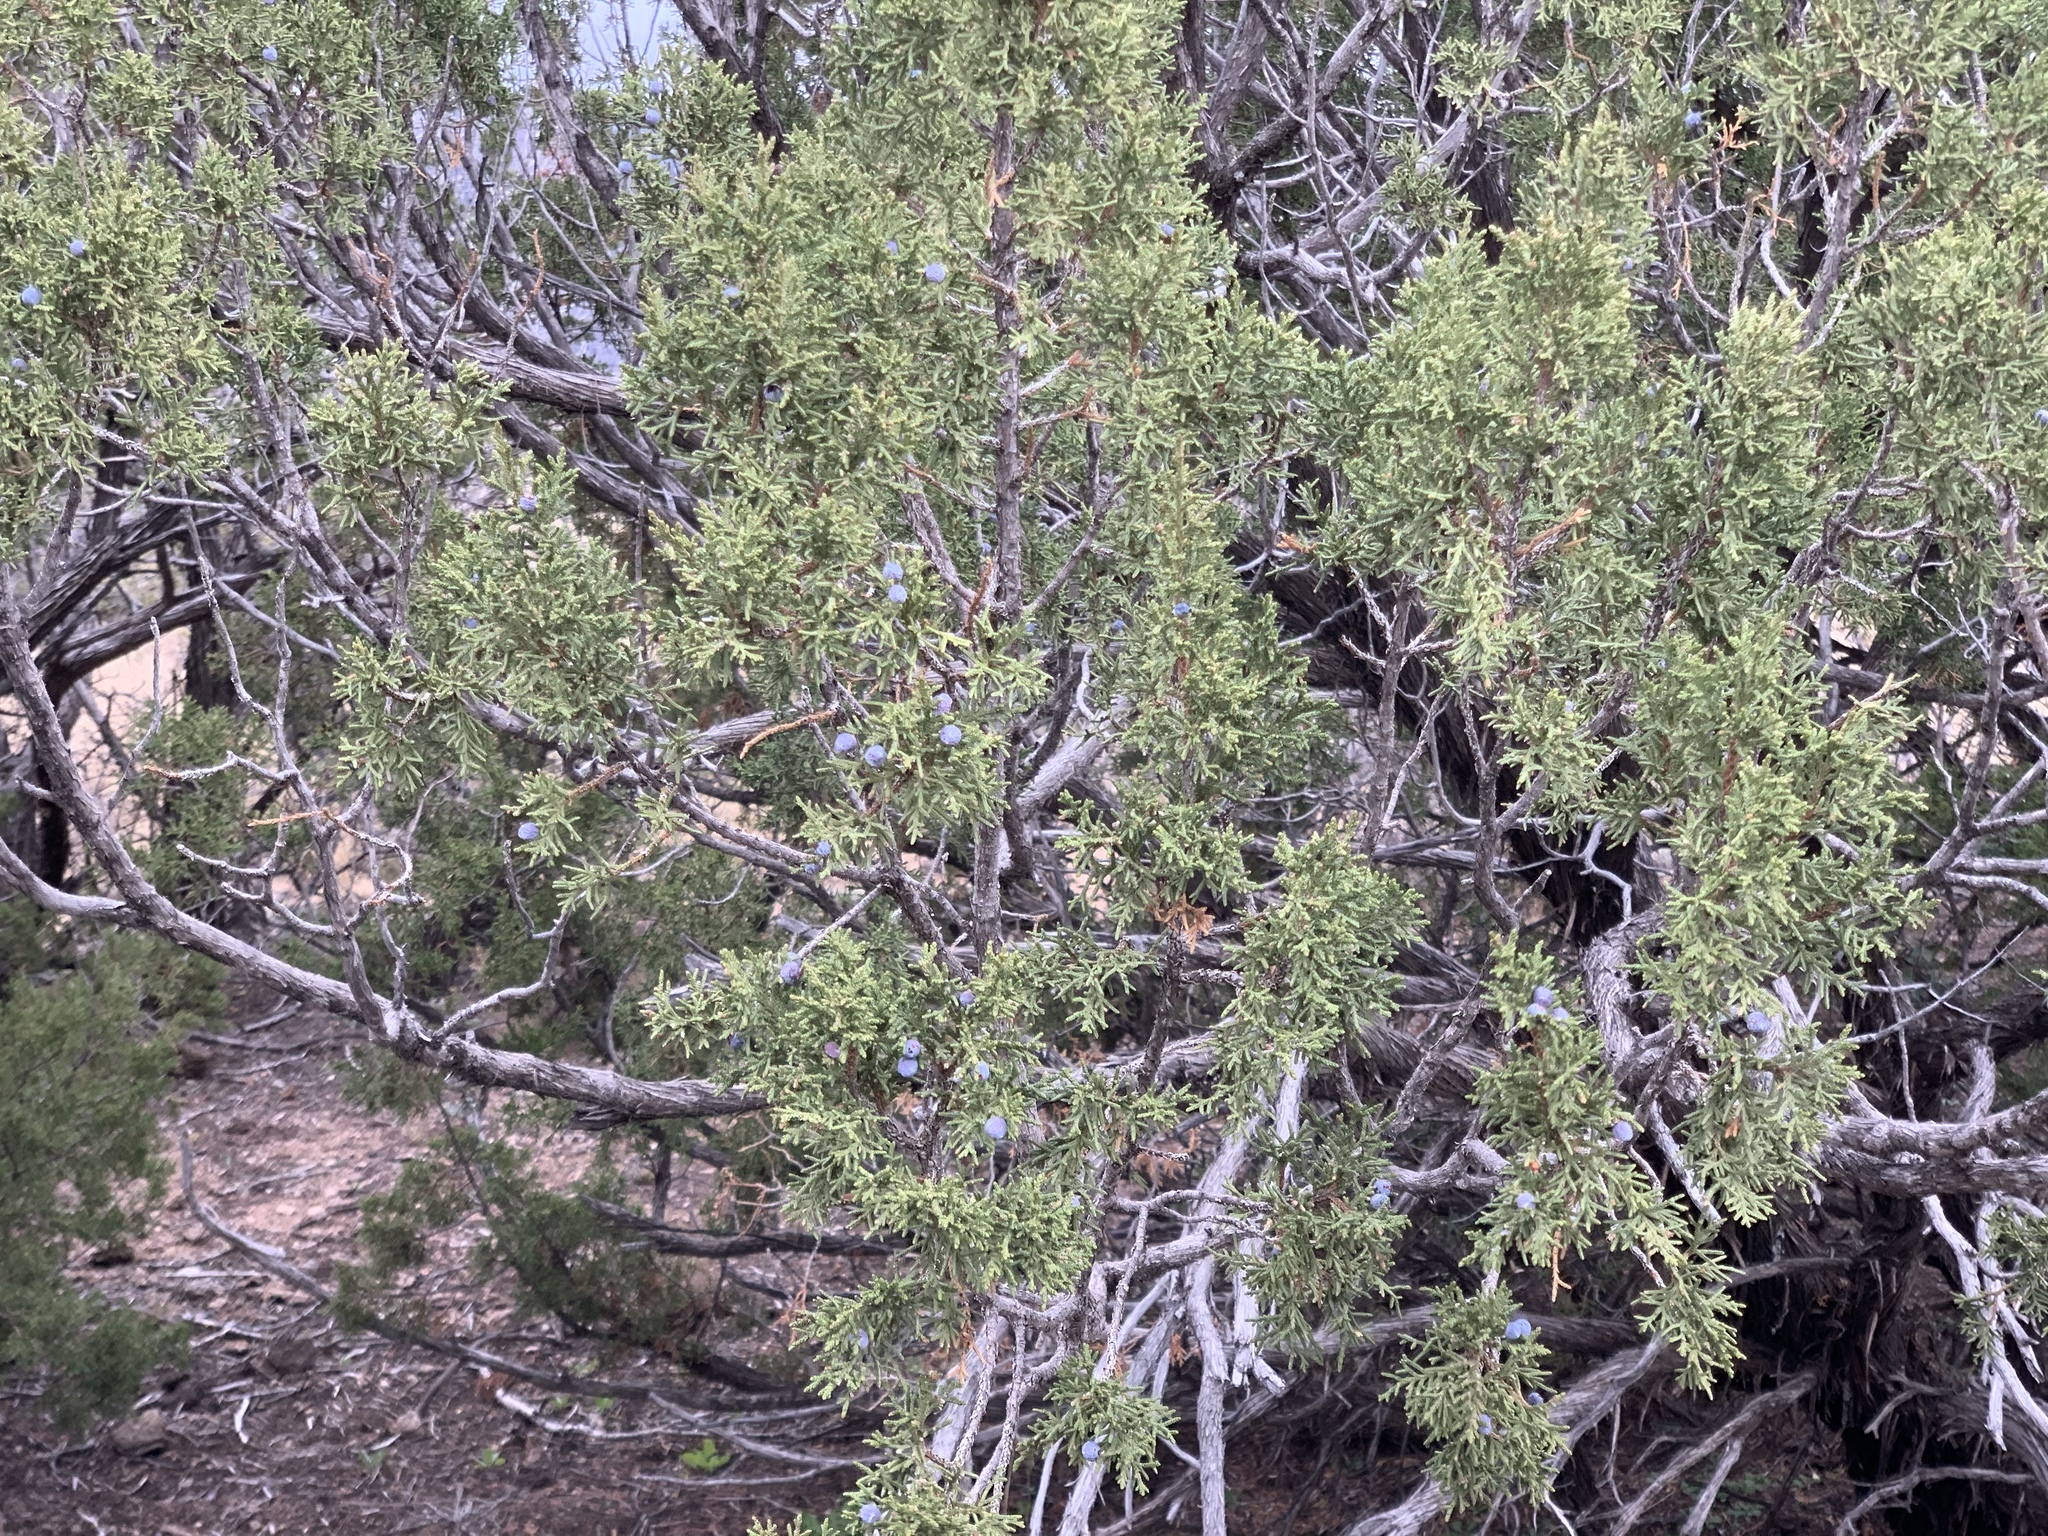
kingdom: Plantae
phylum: Tracheophyta
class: Pinopsida
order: Pinales
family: Cupressaceae
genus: Juniperus
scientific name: Juniperus monosperma
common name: One-seed juniper
